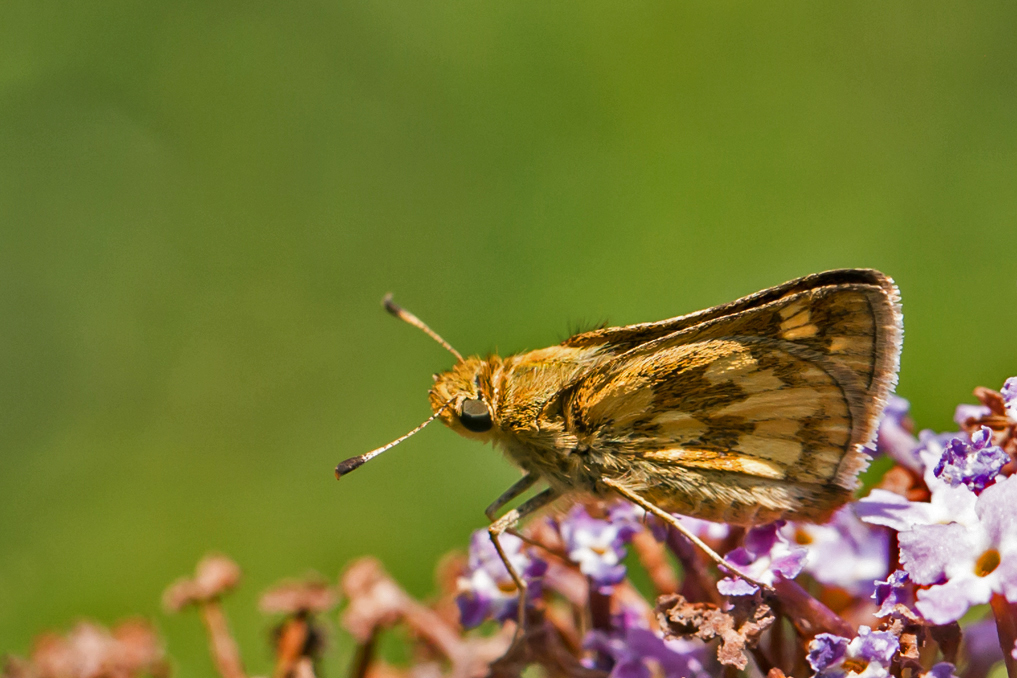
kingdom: Animalia
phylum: Arthropoda
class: Insecta
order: Lepidoptera
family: Hesperiidae
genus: Polites
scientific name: Polites coras
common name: Peck's skipper
